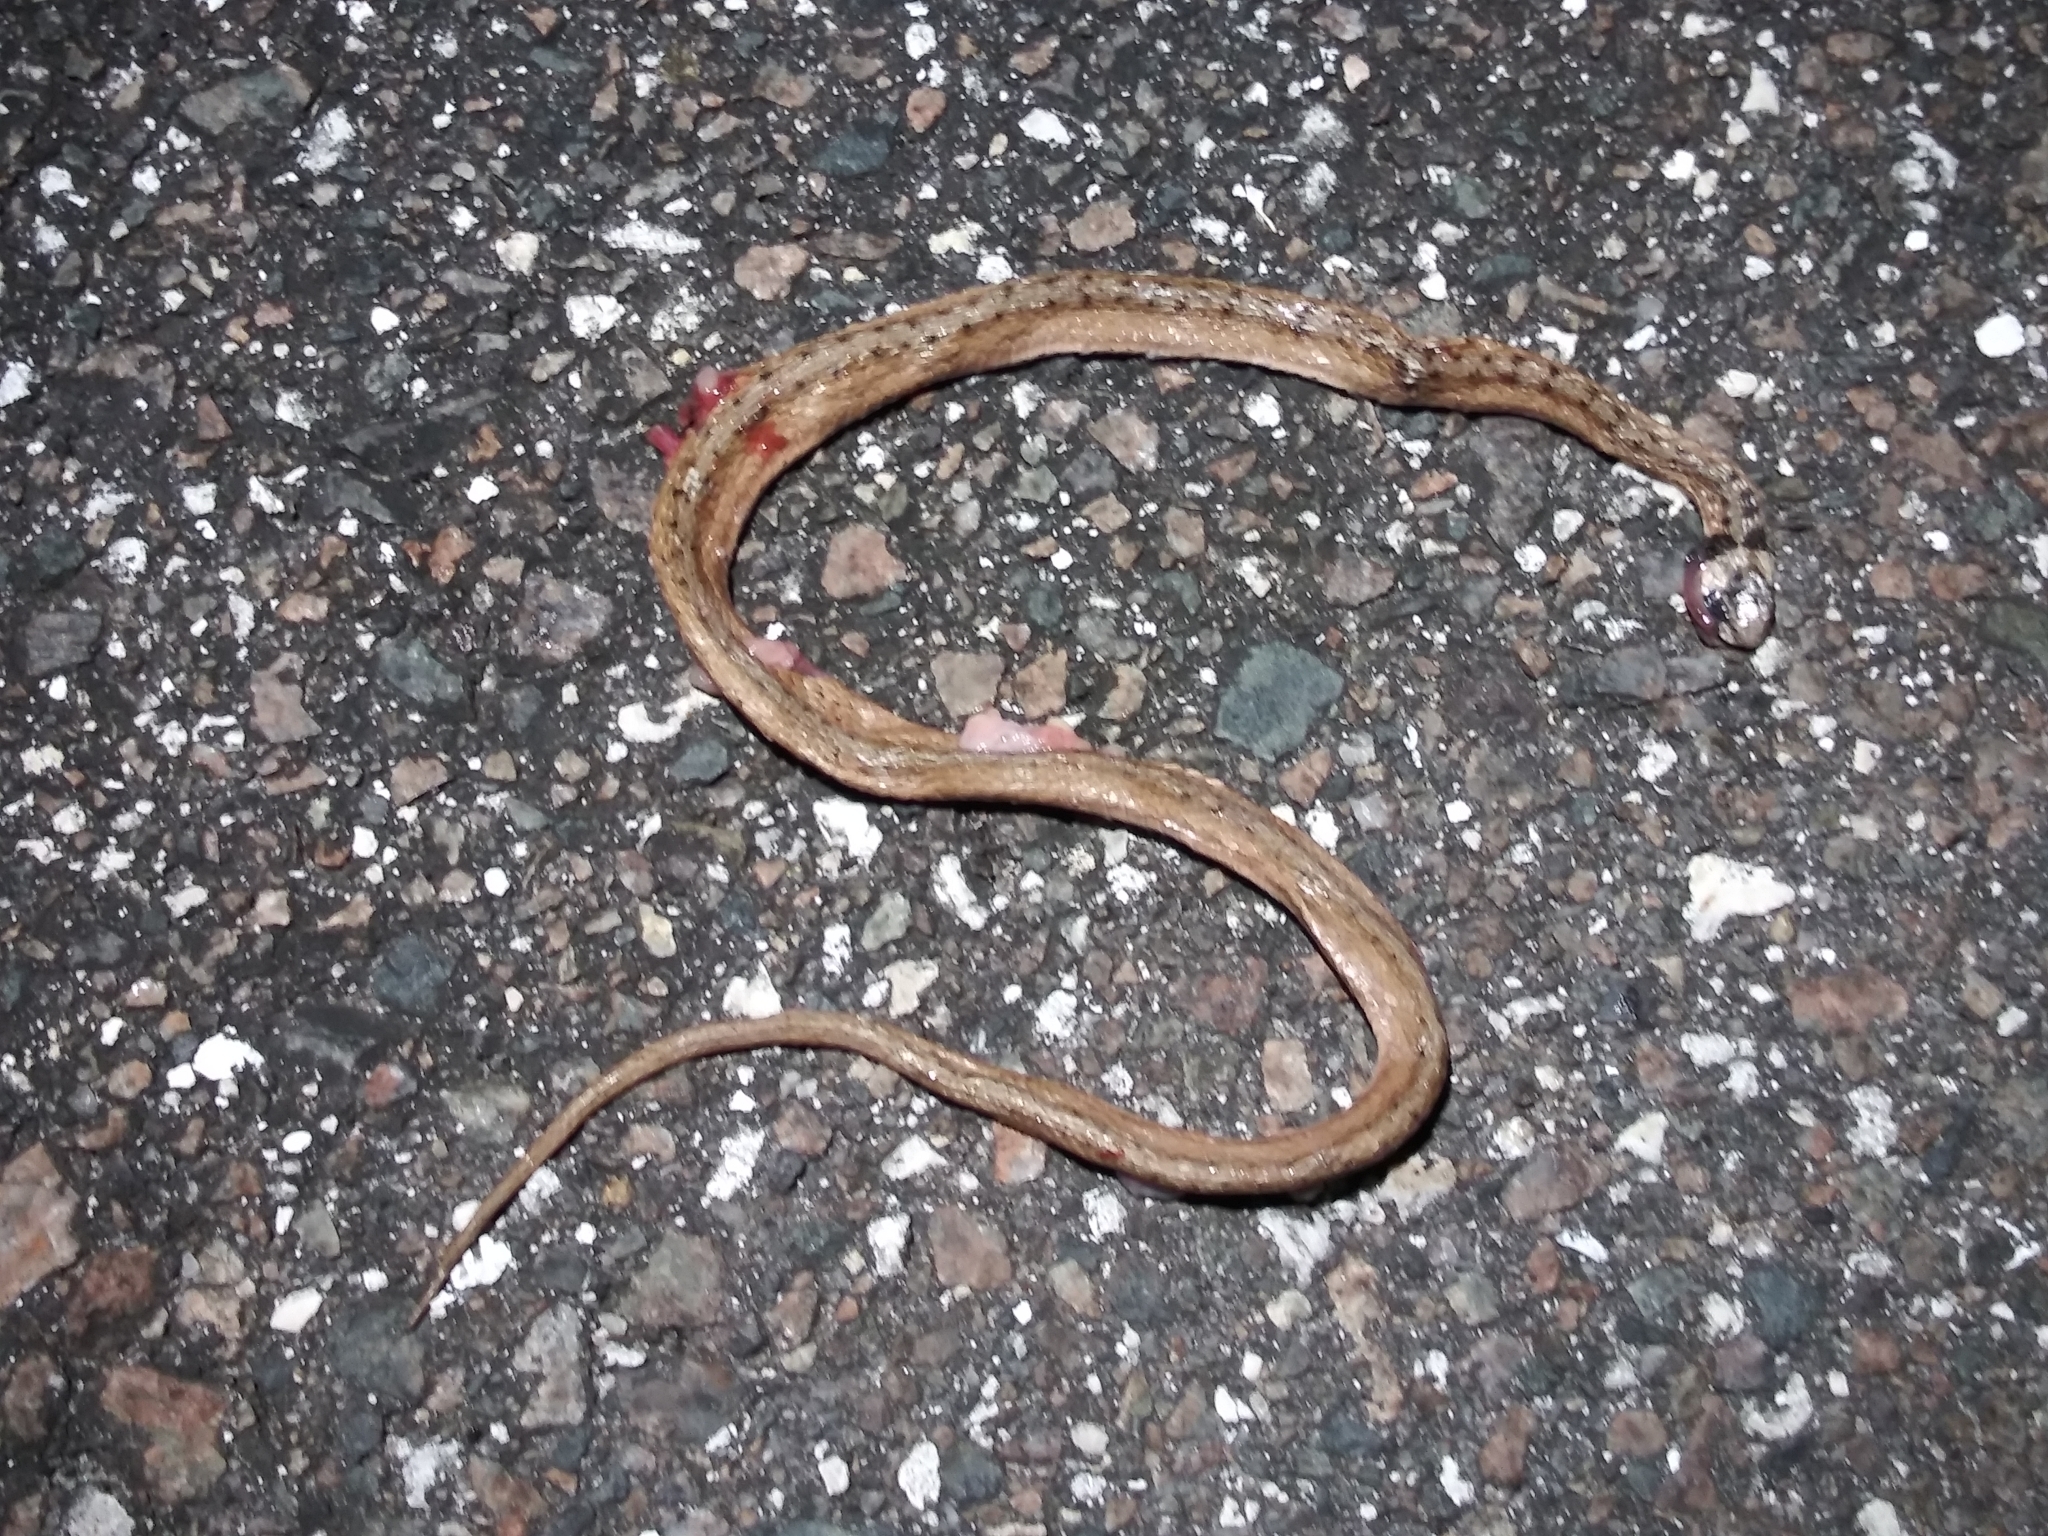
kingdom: Animalia
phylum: Chordata
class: Squamata
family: Colubridae
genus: Storeria
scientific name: Storeria victa
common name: Florida brown snake
